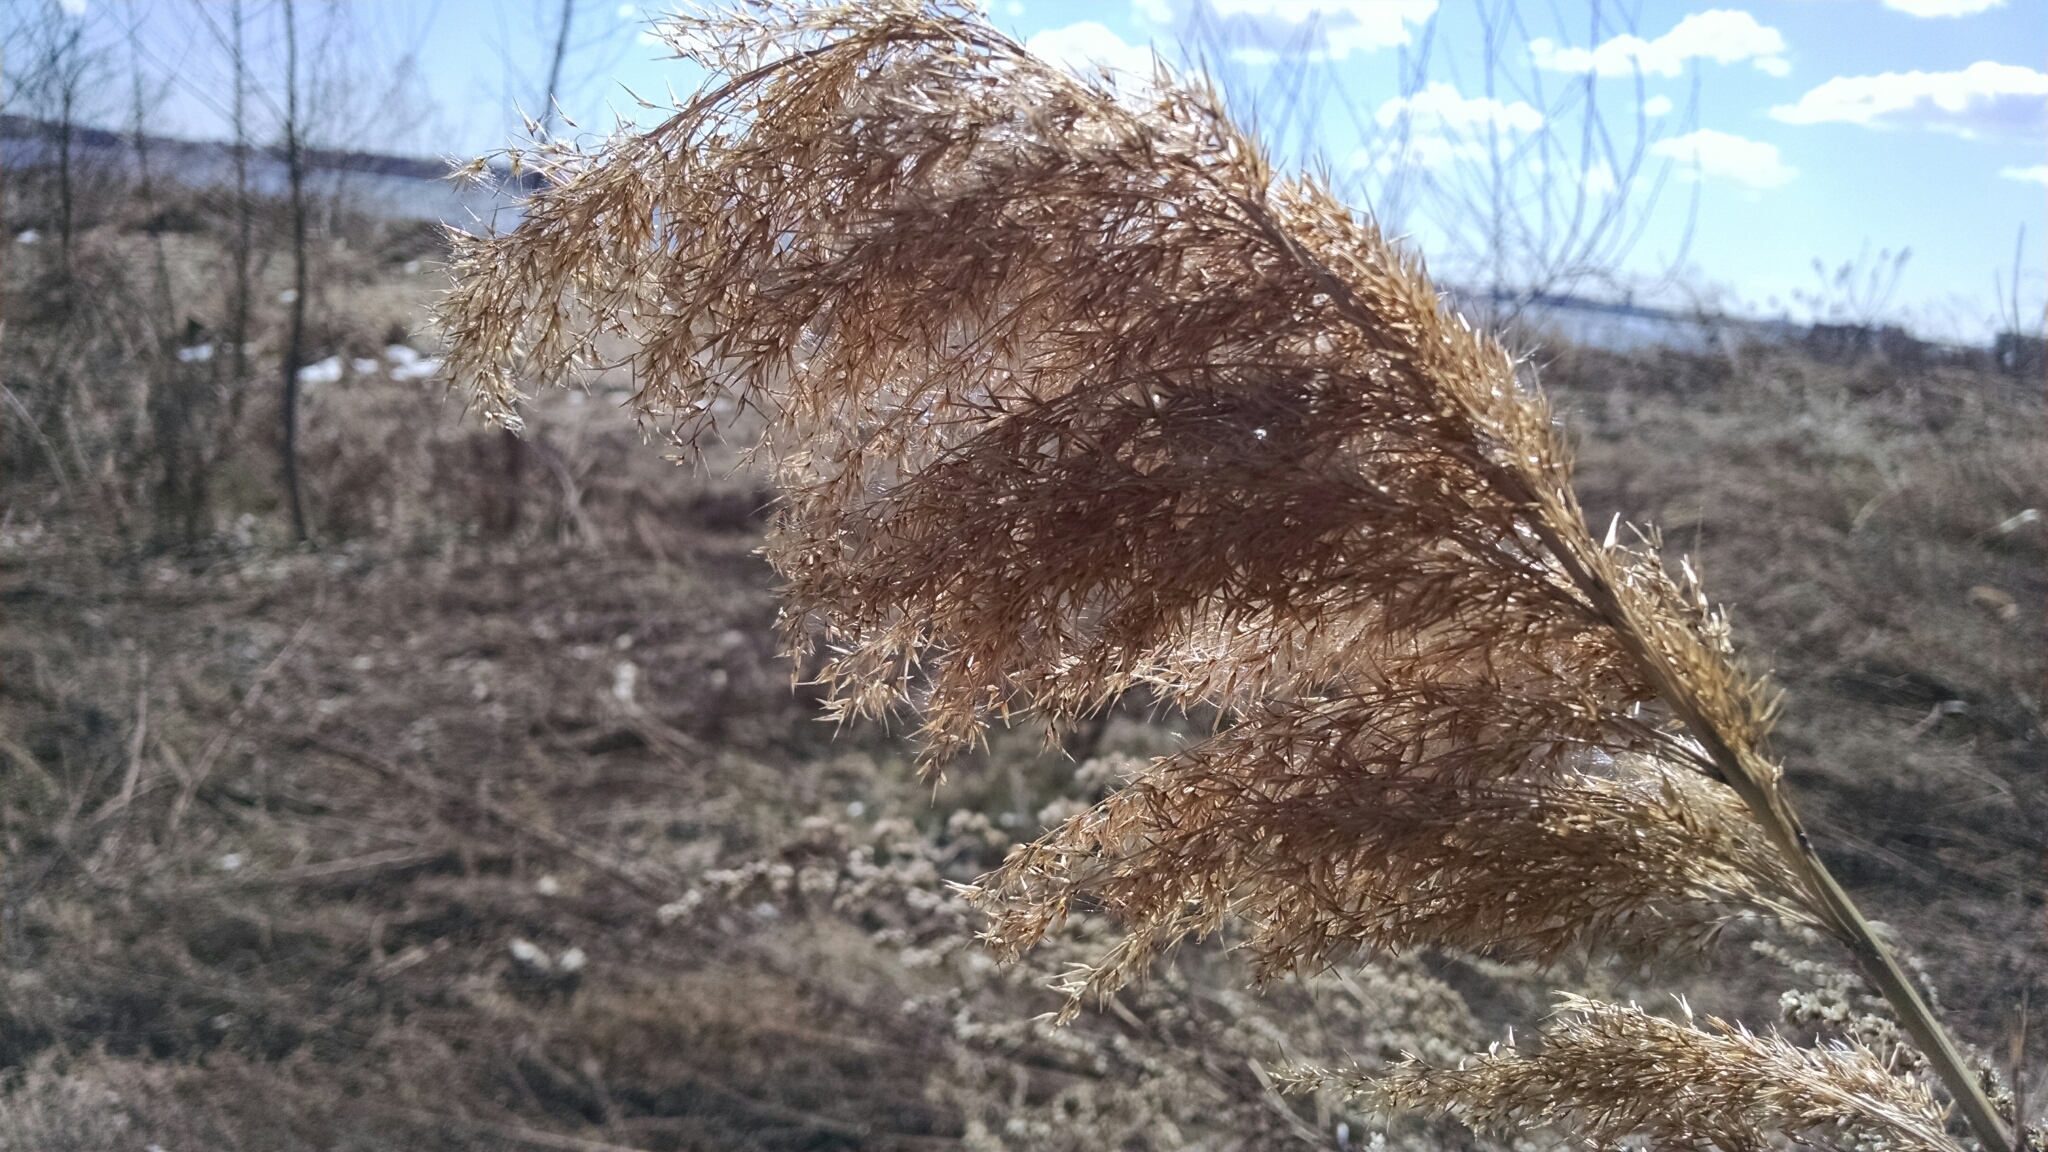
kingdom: Plantae
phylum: Tracheophyta
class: Liliopsida
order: Poales
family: Poaceae
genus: Phragmites
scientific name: Phragmites australis
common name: Common reed
